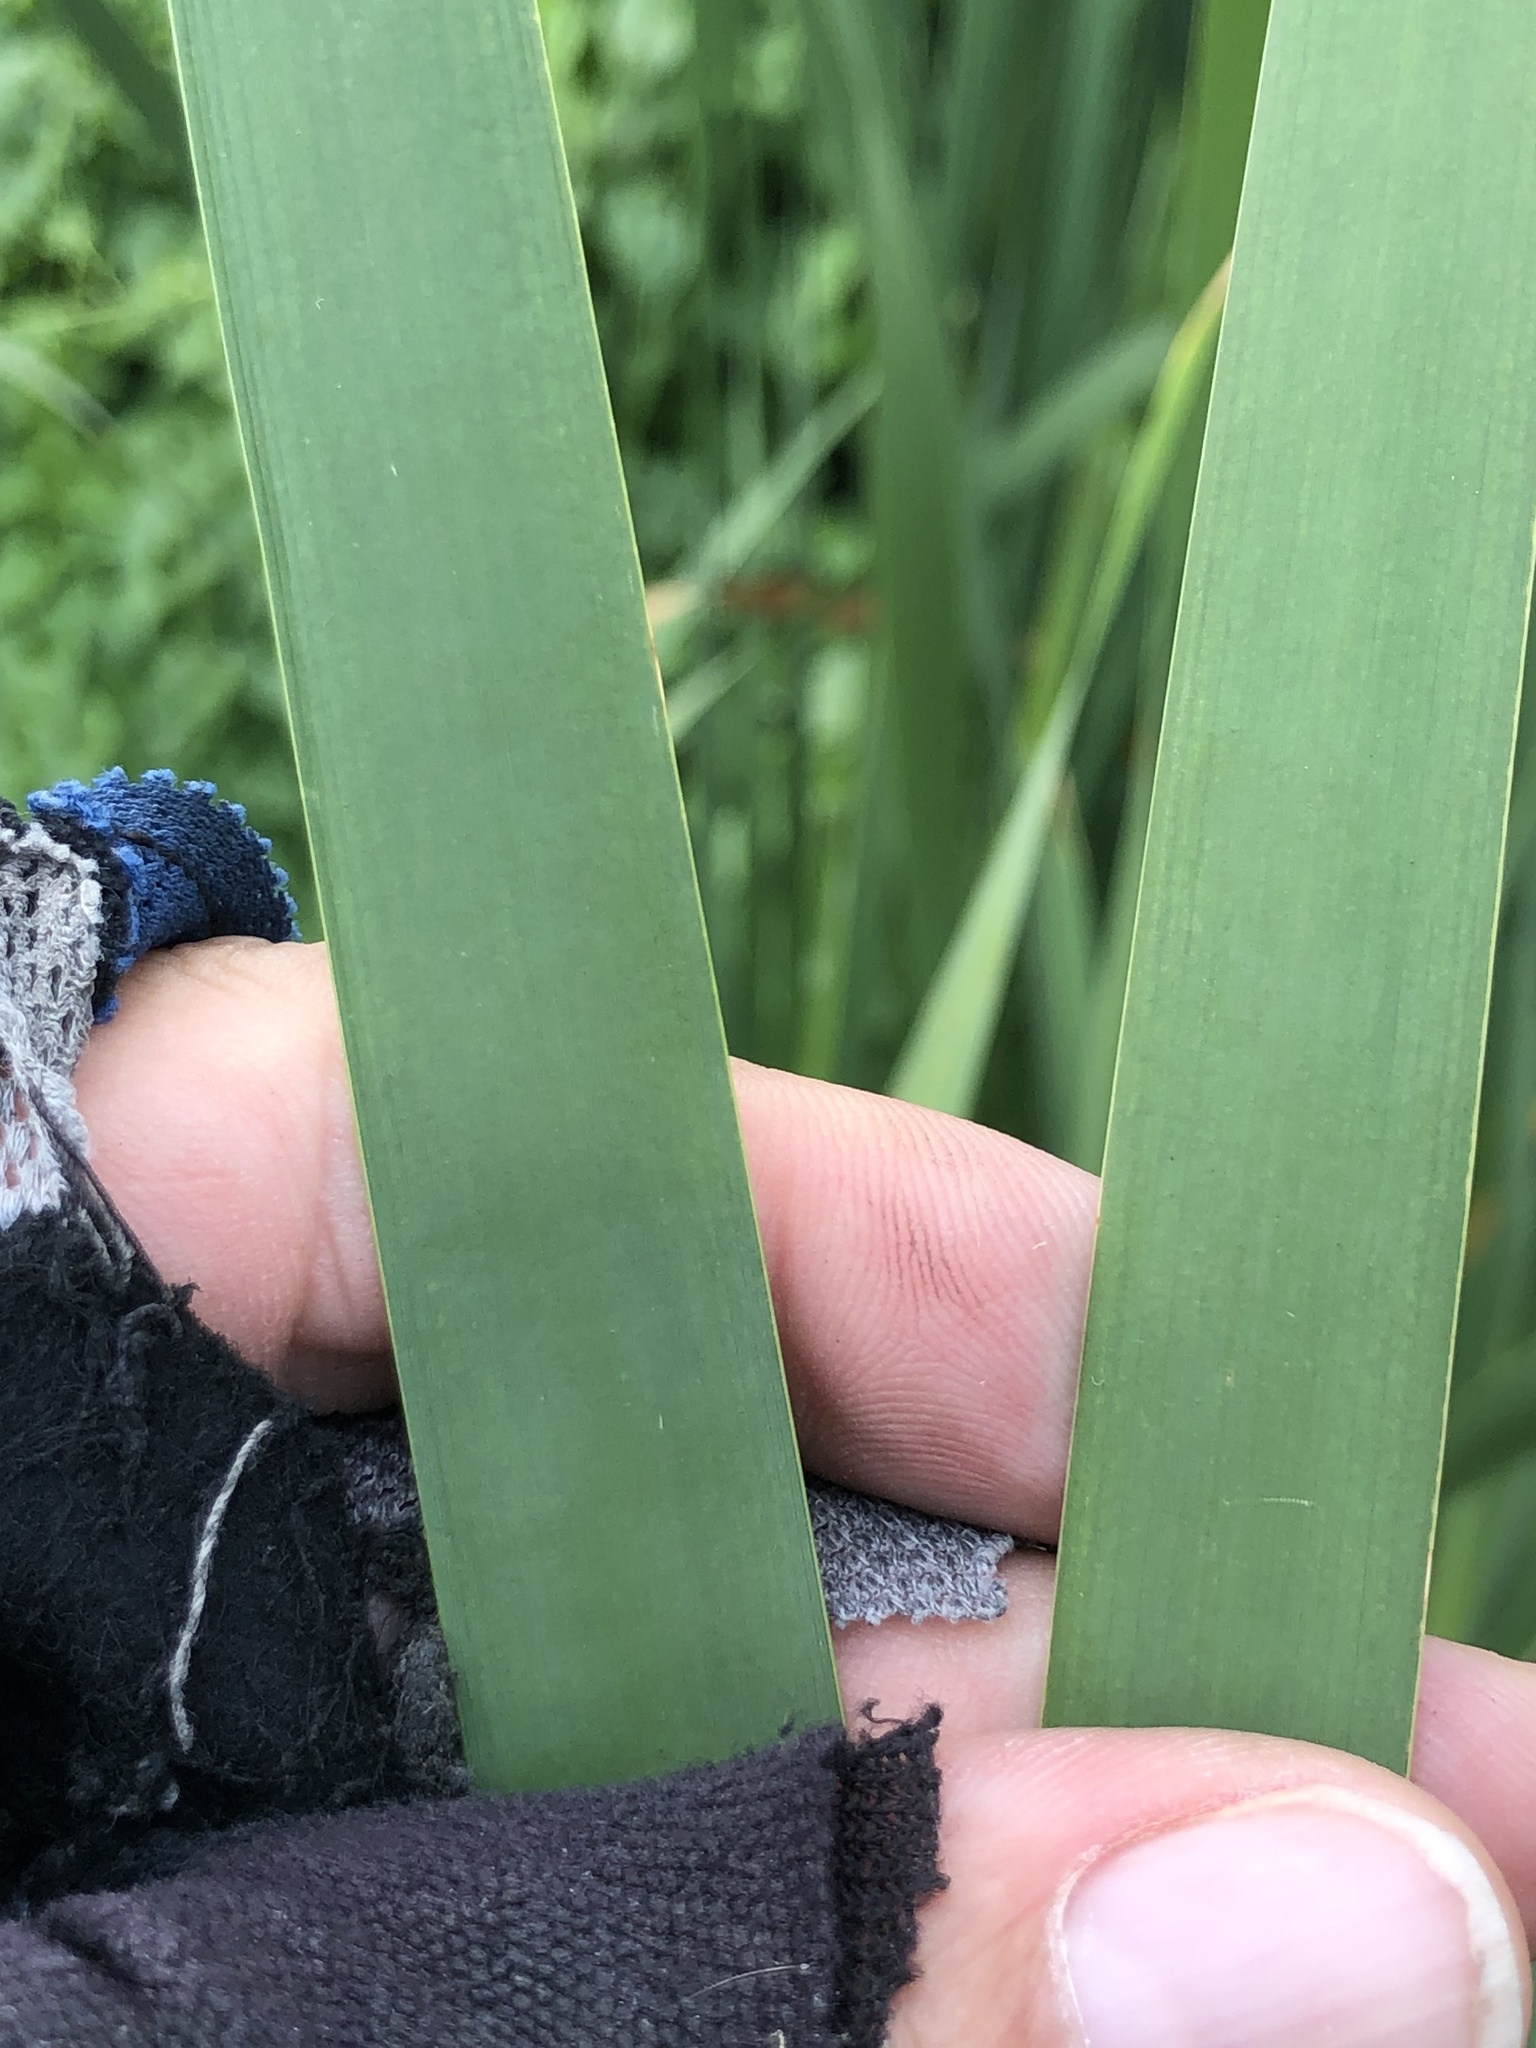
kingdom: Plantae
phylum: Tracheophyta
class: Liliopsida
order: Poales
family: Typhaceae
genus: Typha
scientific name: Typha latifolia
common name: Broadleaf cattail
